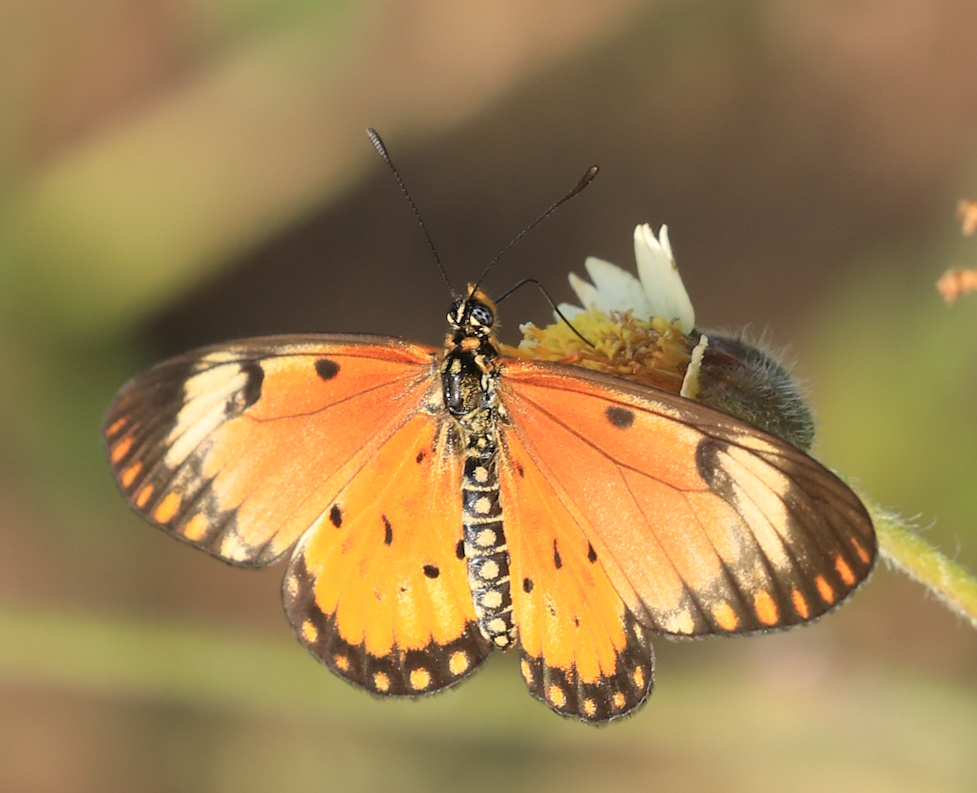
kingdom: Animalia
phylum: Arthropoda
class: Insecta
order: Lepidoptera
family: Nymphalidae
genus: Acraea
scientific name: Acraea Telchinia serena
